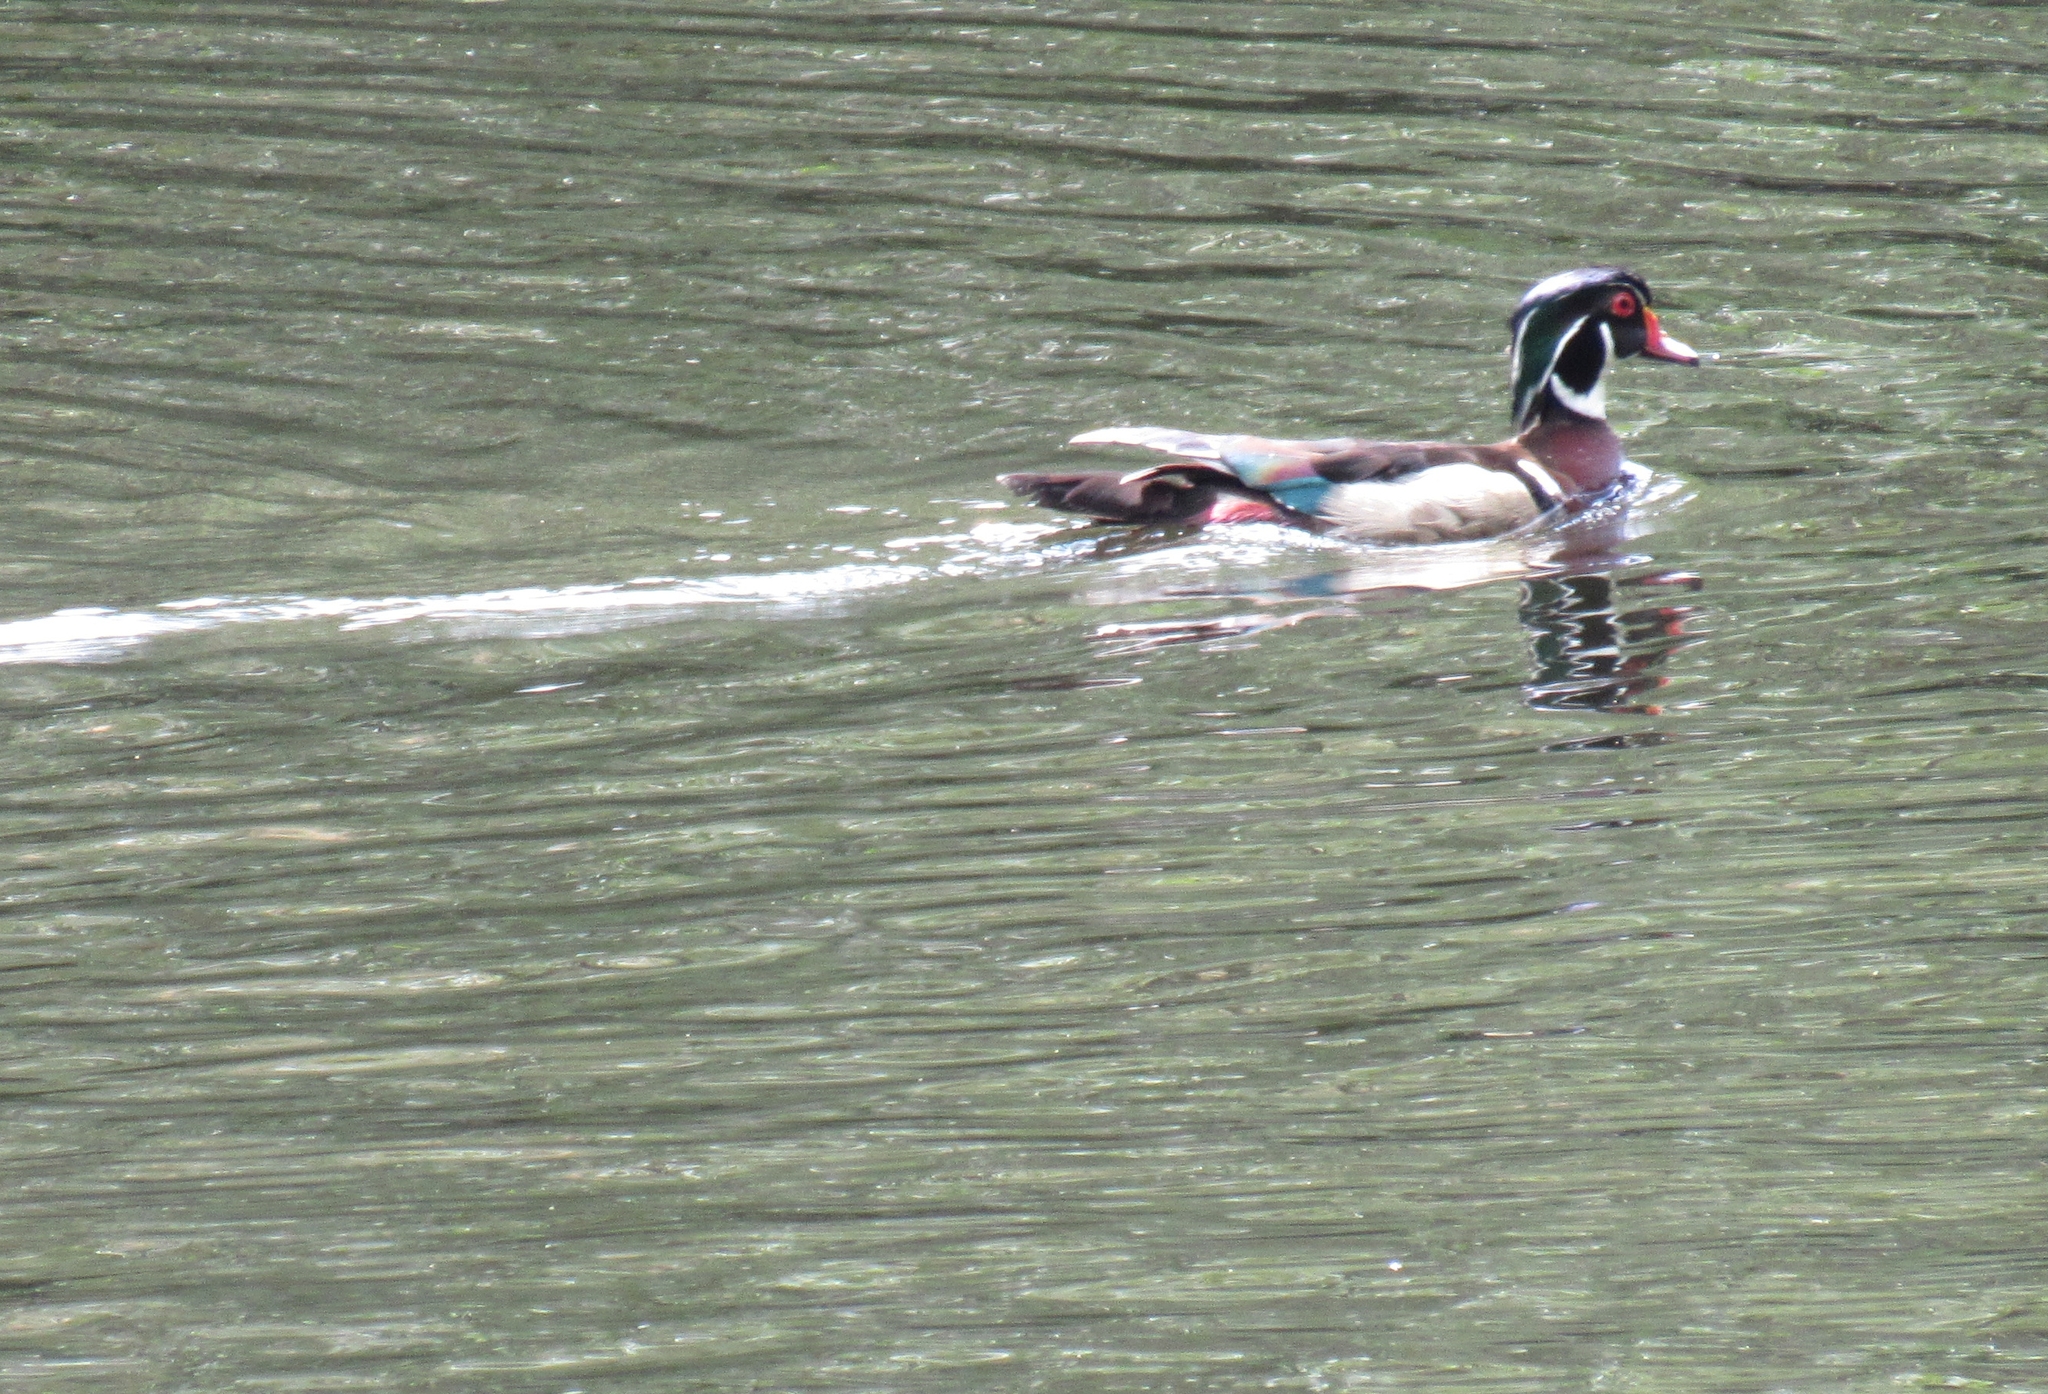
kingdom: Animalia
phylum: Chordata
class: Aves
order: Anseriformes
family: Anatidae
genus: Aix
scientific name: Aix sponsa
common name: Wood duck
